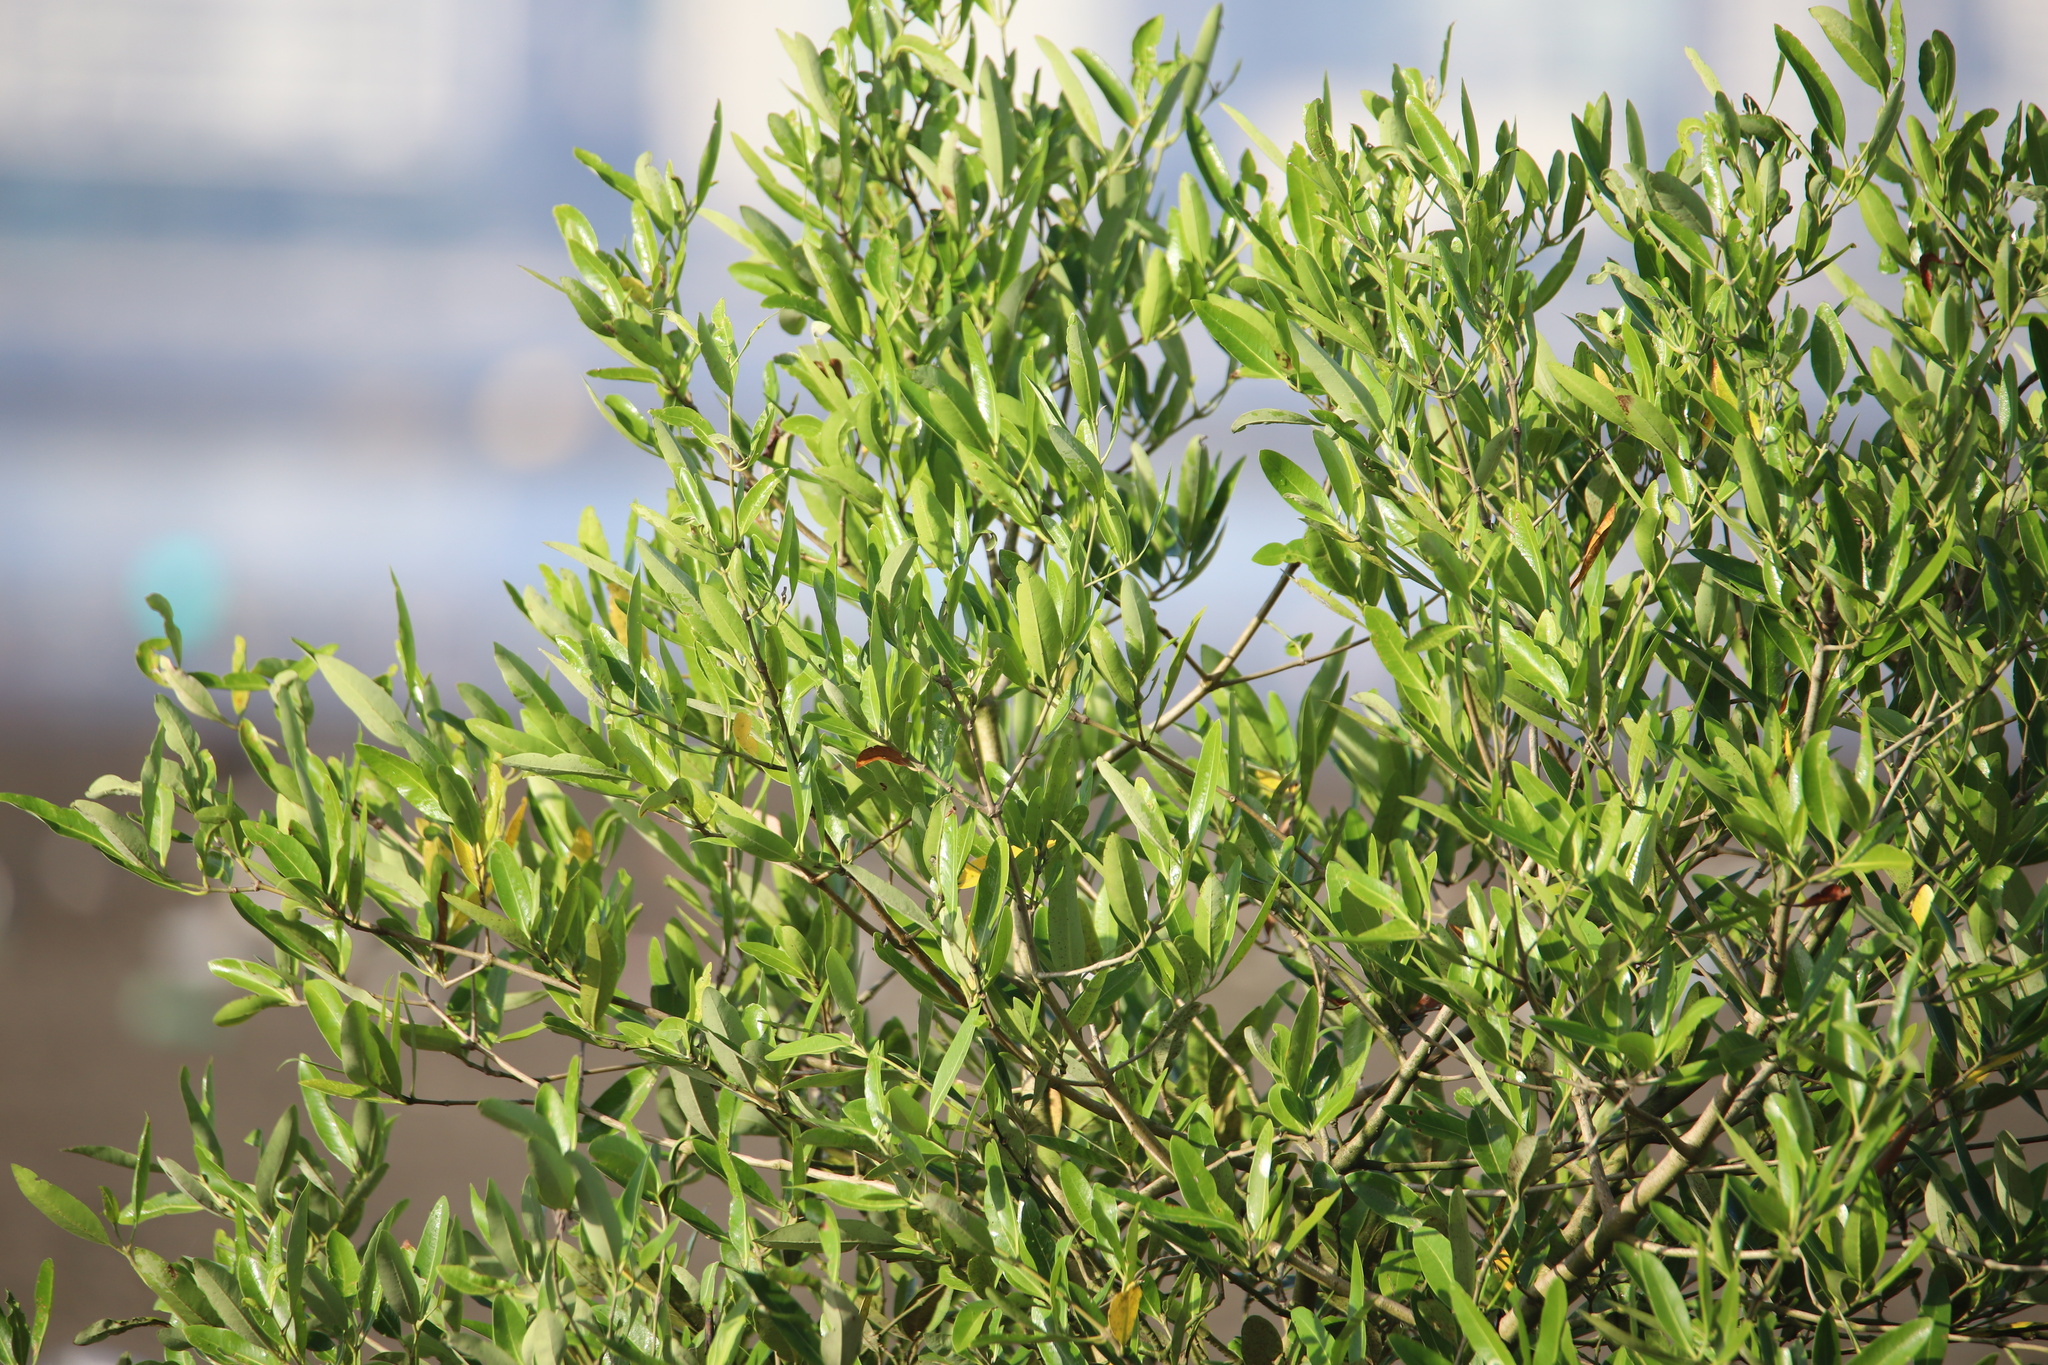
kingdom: Plantae
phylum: Tracheophyta
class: Magnoliopsida
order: Lamiales
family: Acanthaceae
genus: Avicennia
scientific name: Avicennia germinans
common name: Black mangrove
